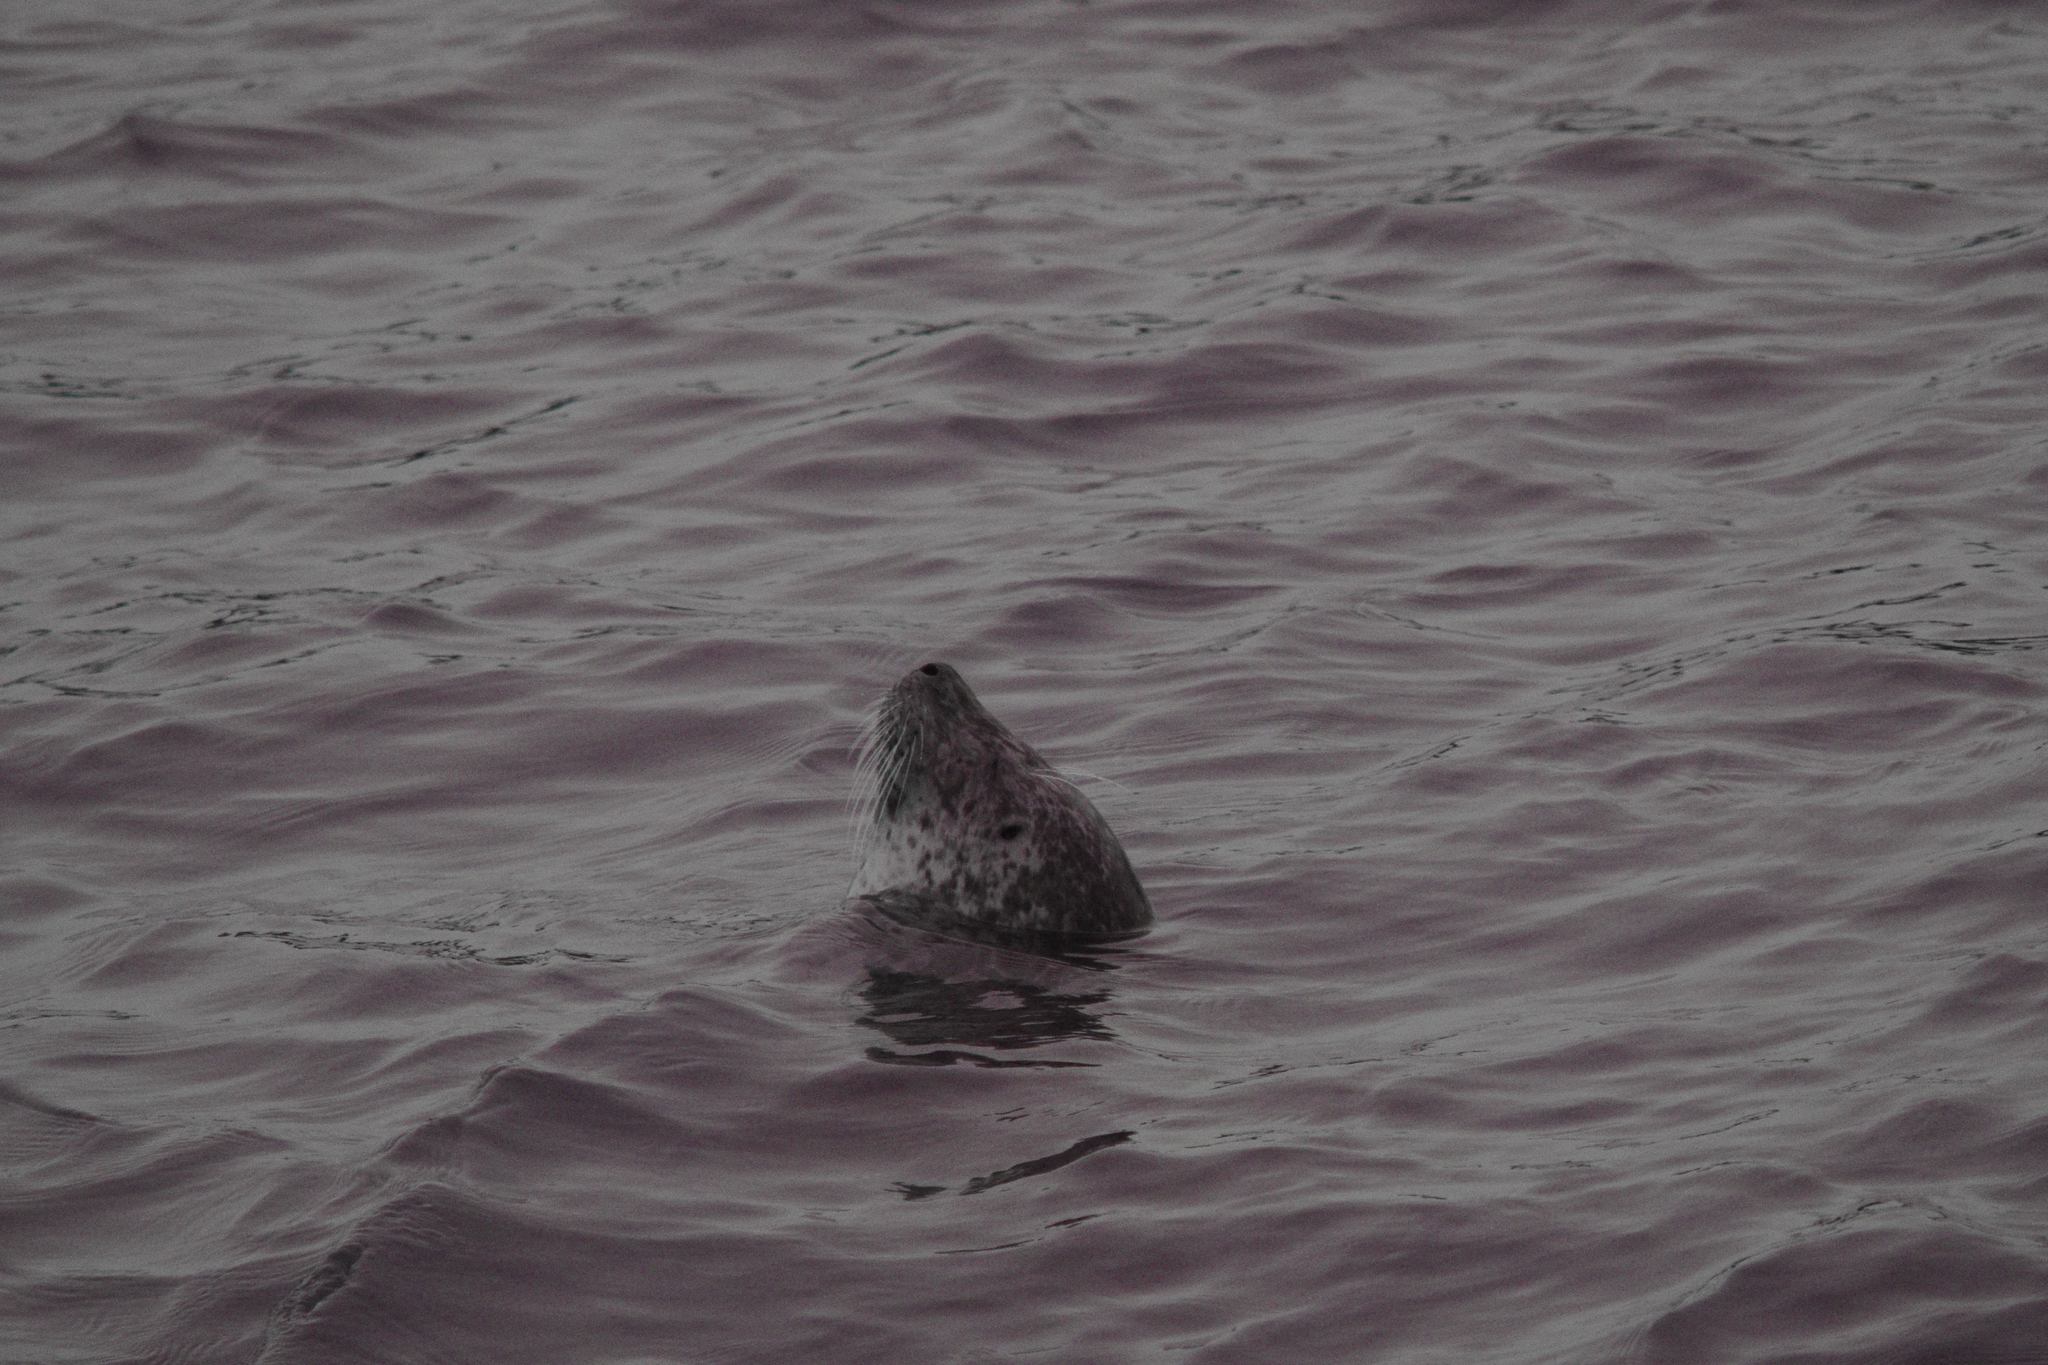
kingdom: Animalia
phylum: Chordata
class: Mammalia
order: Carnivora
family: Phocidae
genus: Phoca
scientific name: Phoca vitulina
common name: Harbor seal
